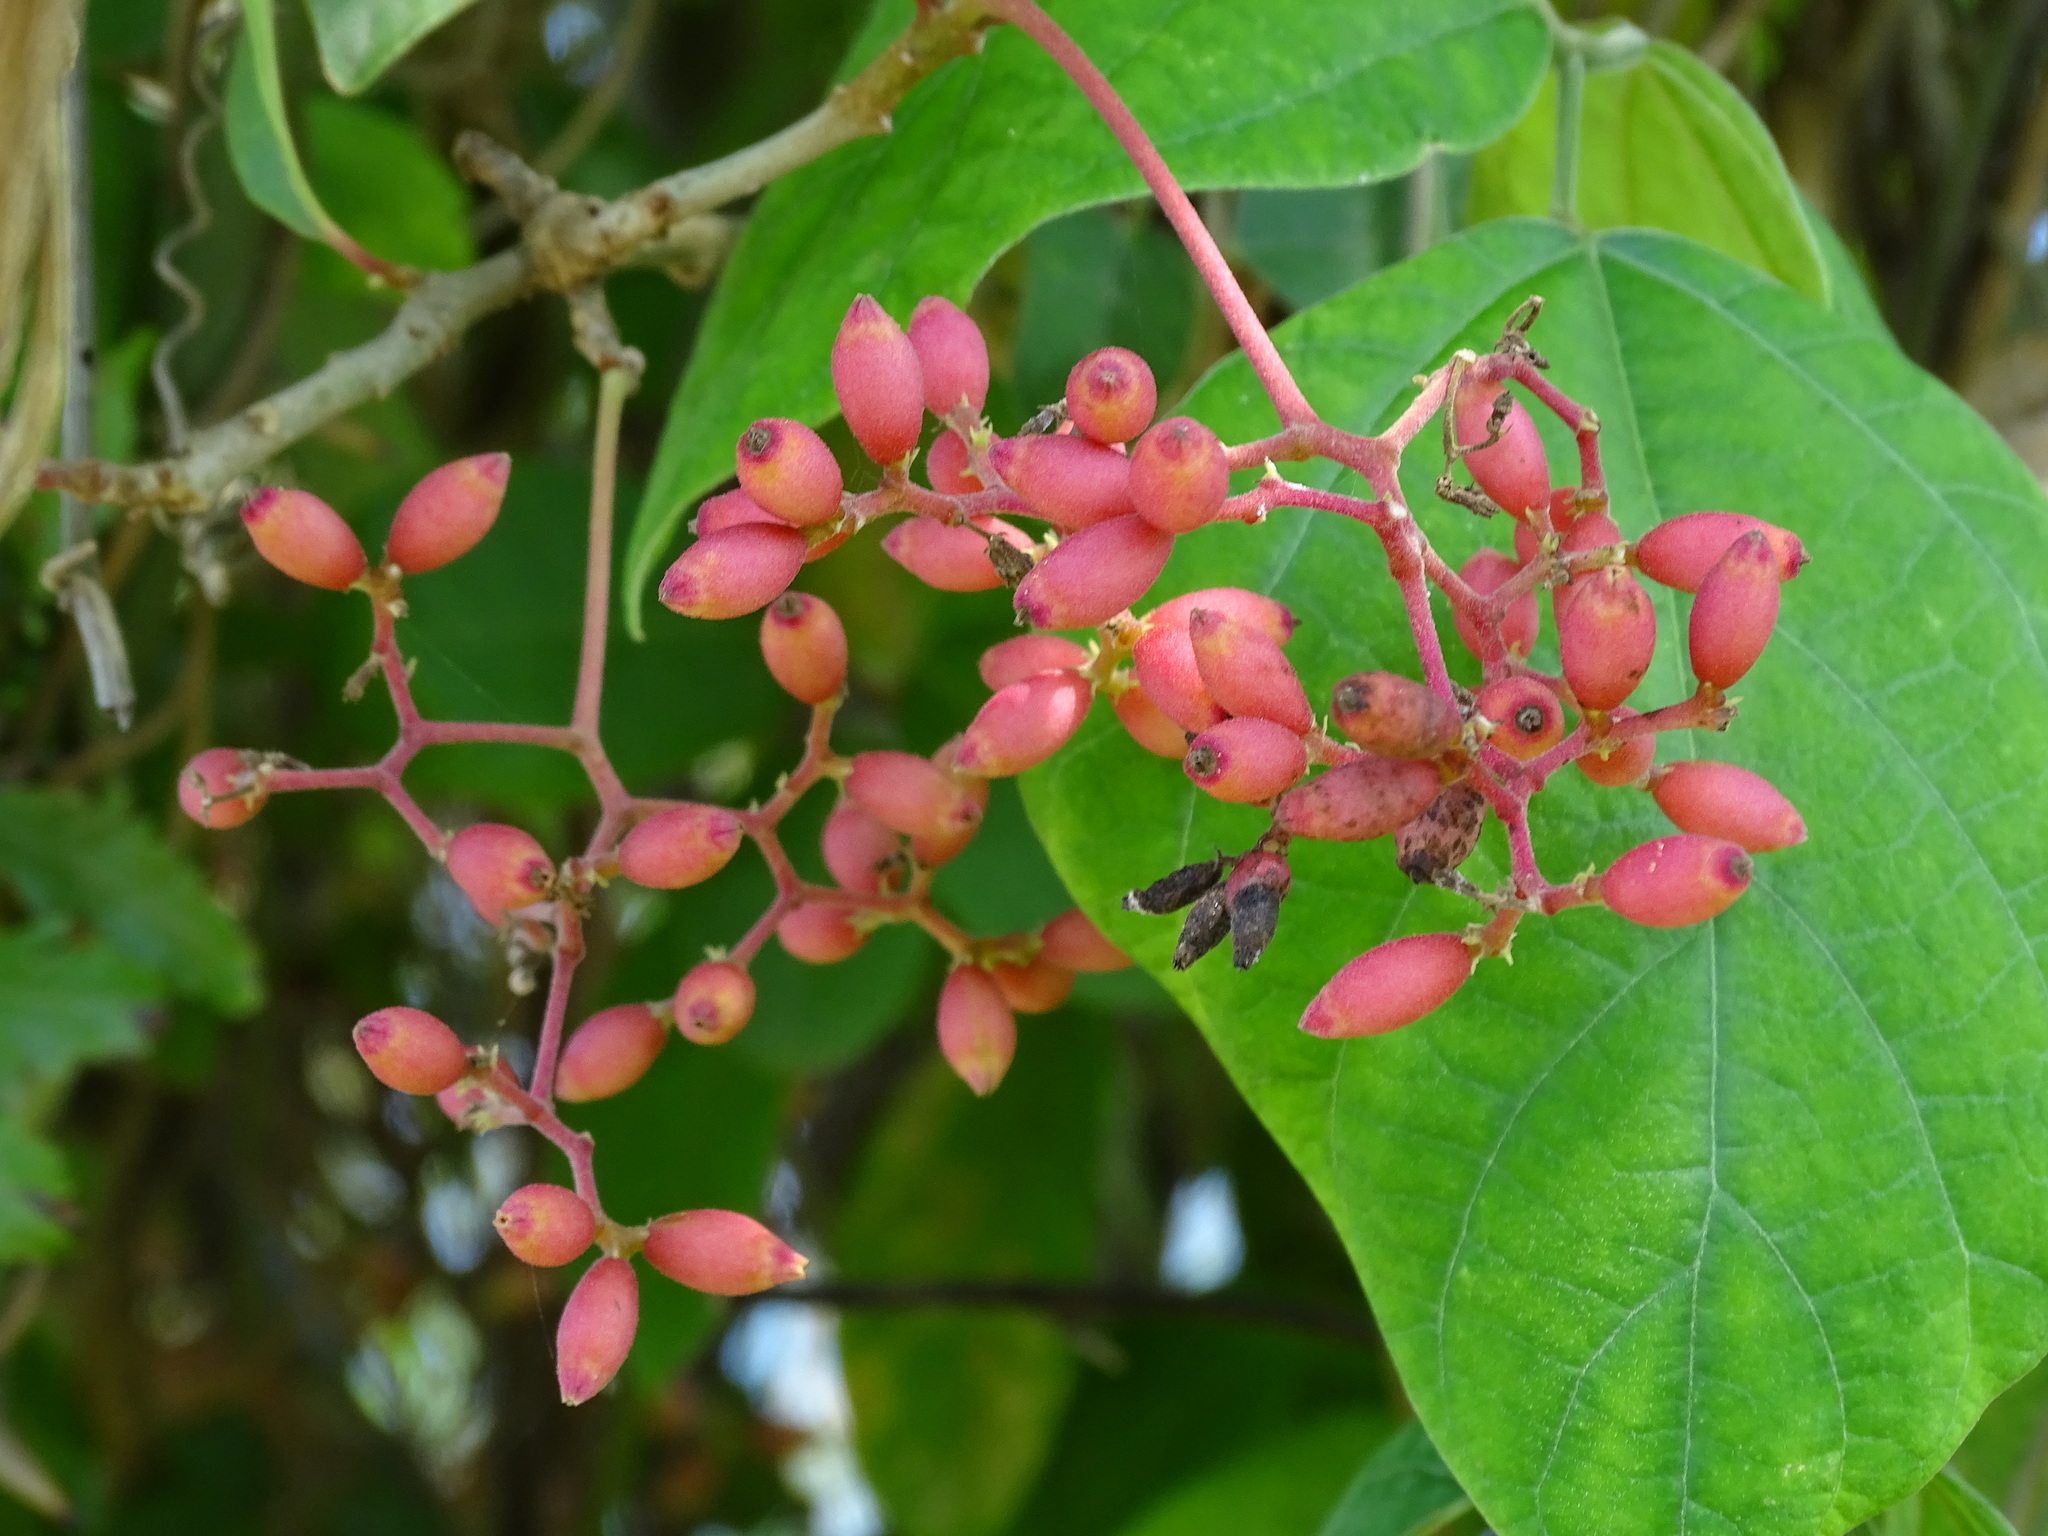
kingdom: Plantae
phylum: Tracheophyta
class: Magnoliopsida
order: Caryophyllales
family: Nyctaginaceae
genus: Neea
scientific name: Neea turbinata
